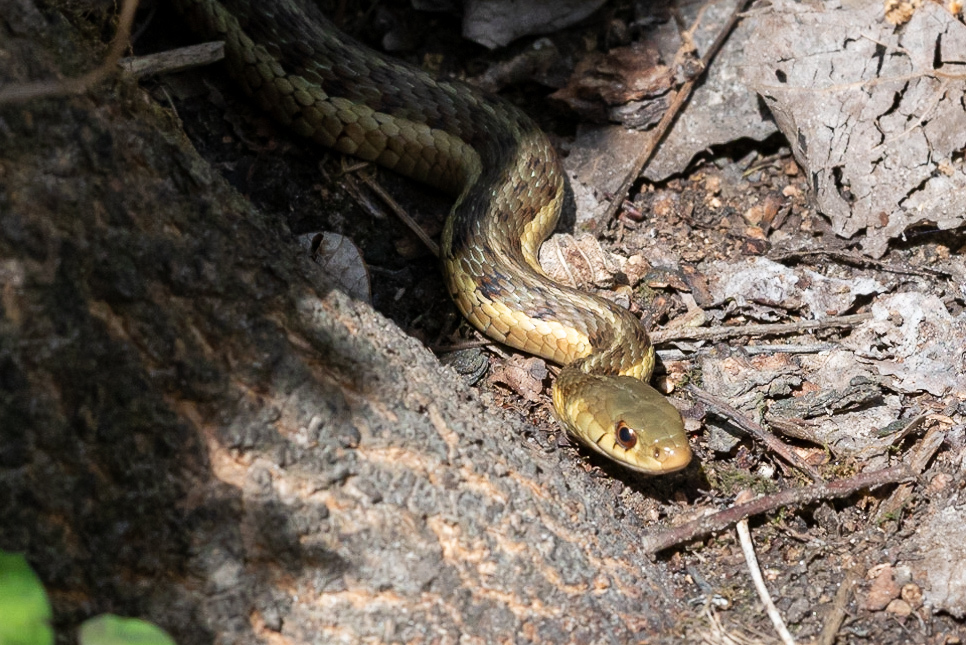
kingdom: Animalia
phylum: Chordata
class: Squamata
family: Colubridae
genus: Thamnophis
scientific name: Thamnophis sirtalis
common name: Common garter snake
